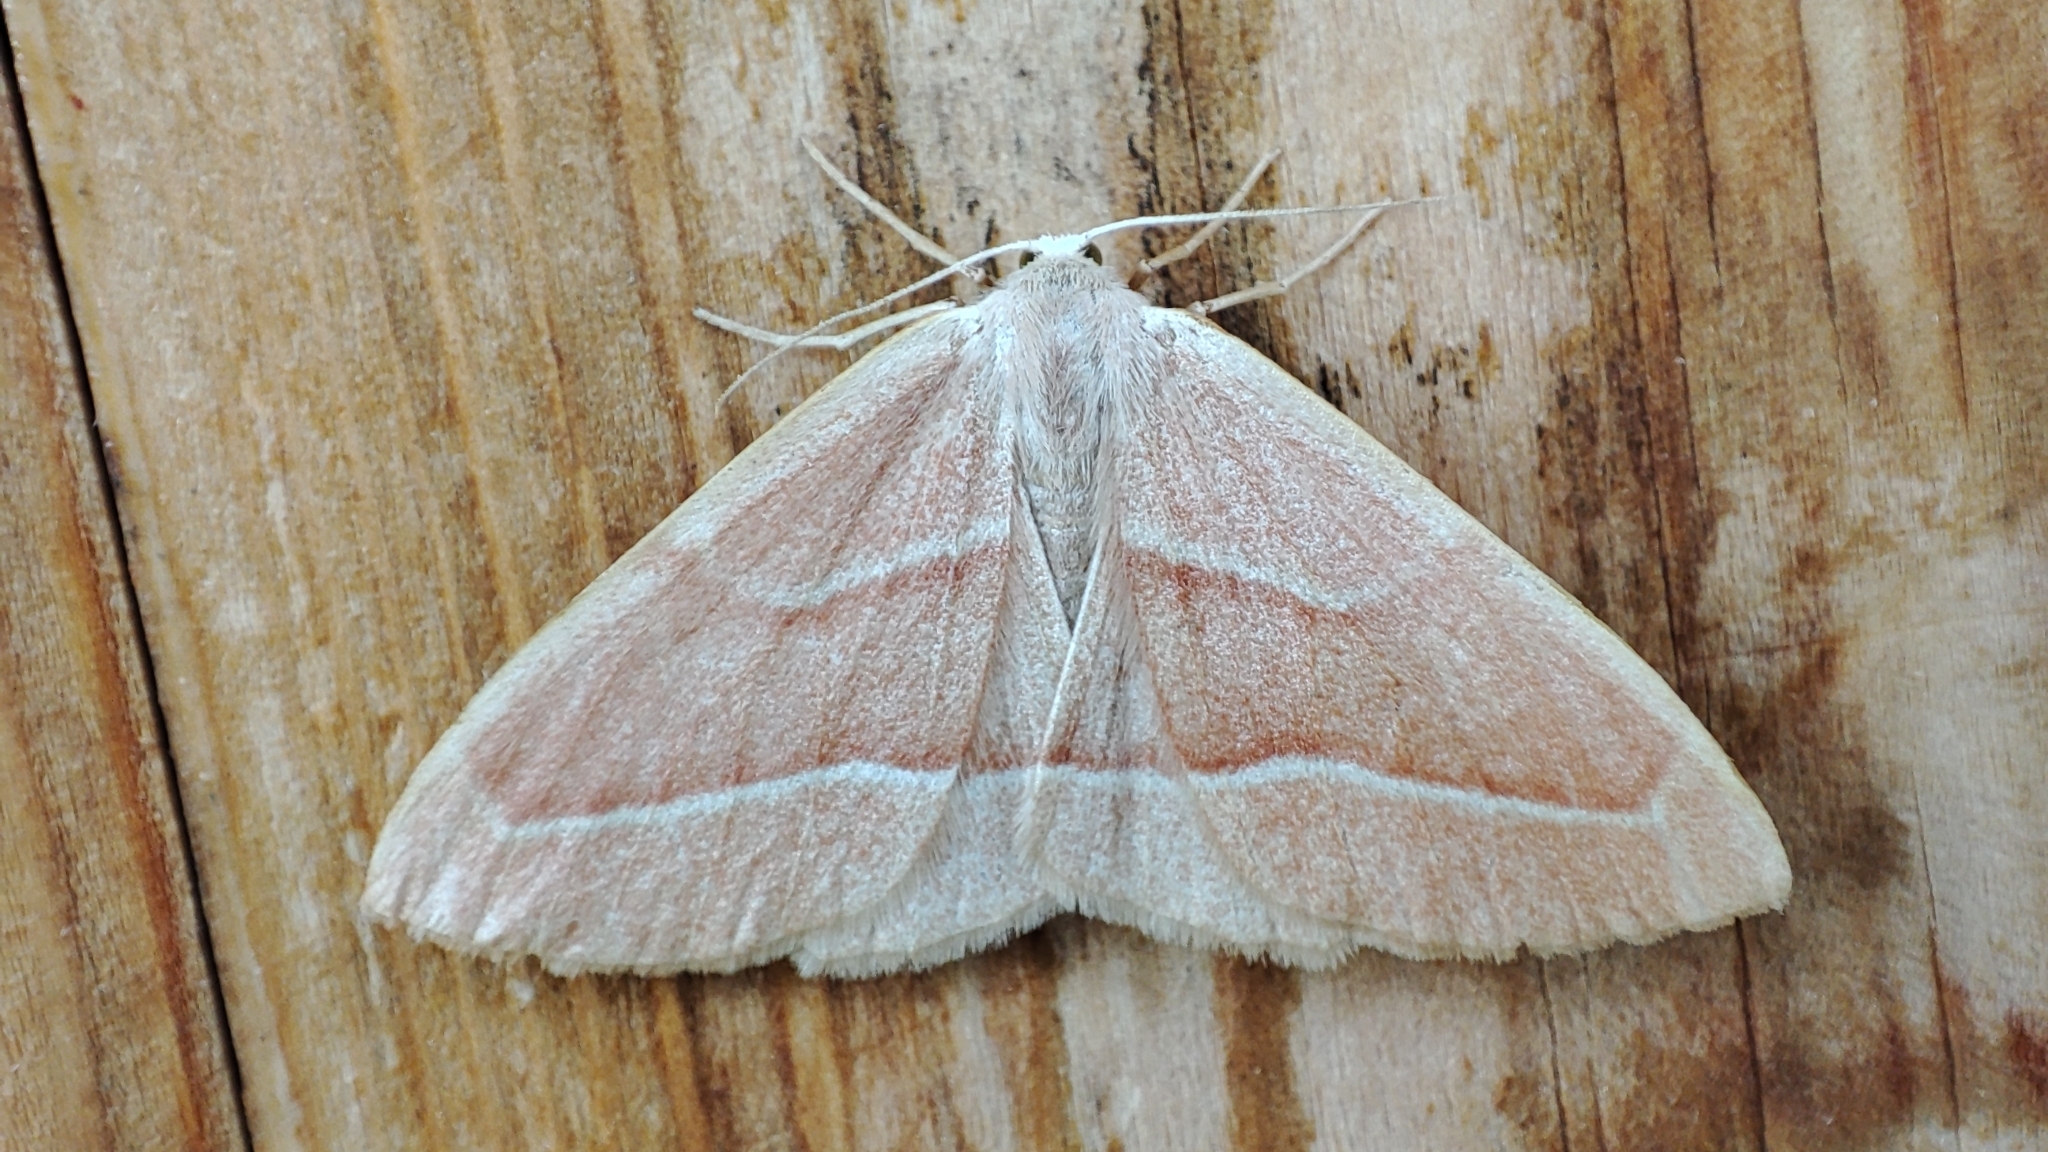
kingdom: Animalia
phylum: Arthropoda
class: Insecta
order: Lepidoptera
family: Geometridae
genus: Hylaea
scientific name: Hylaea fasciaria
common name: Barred red
